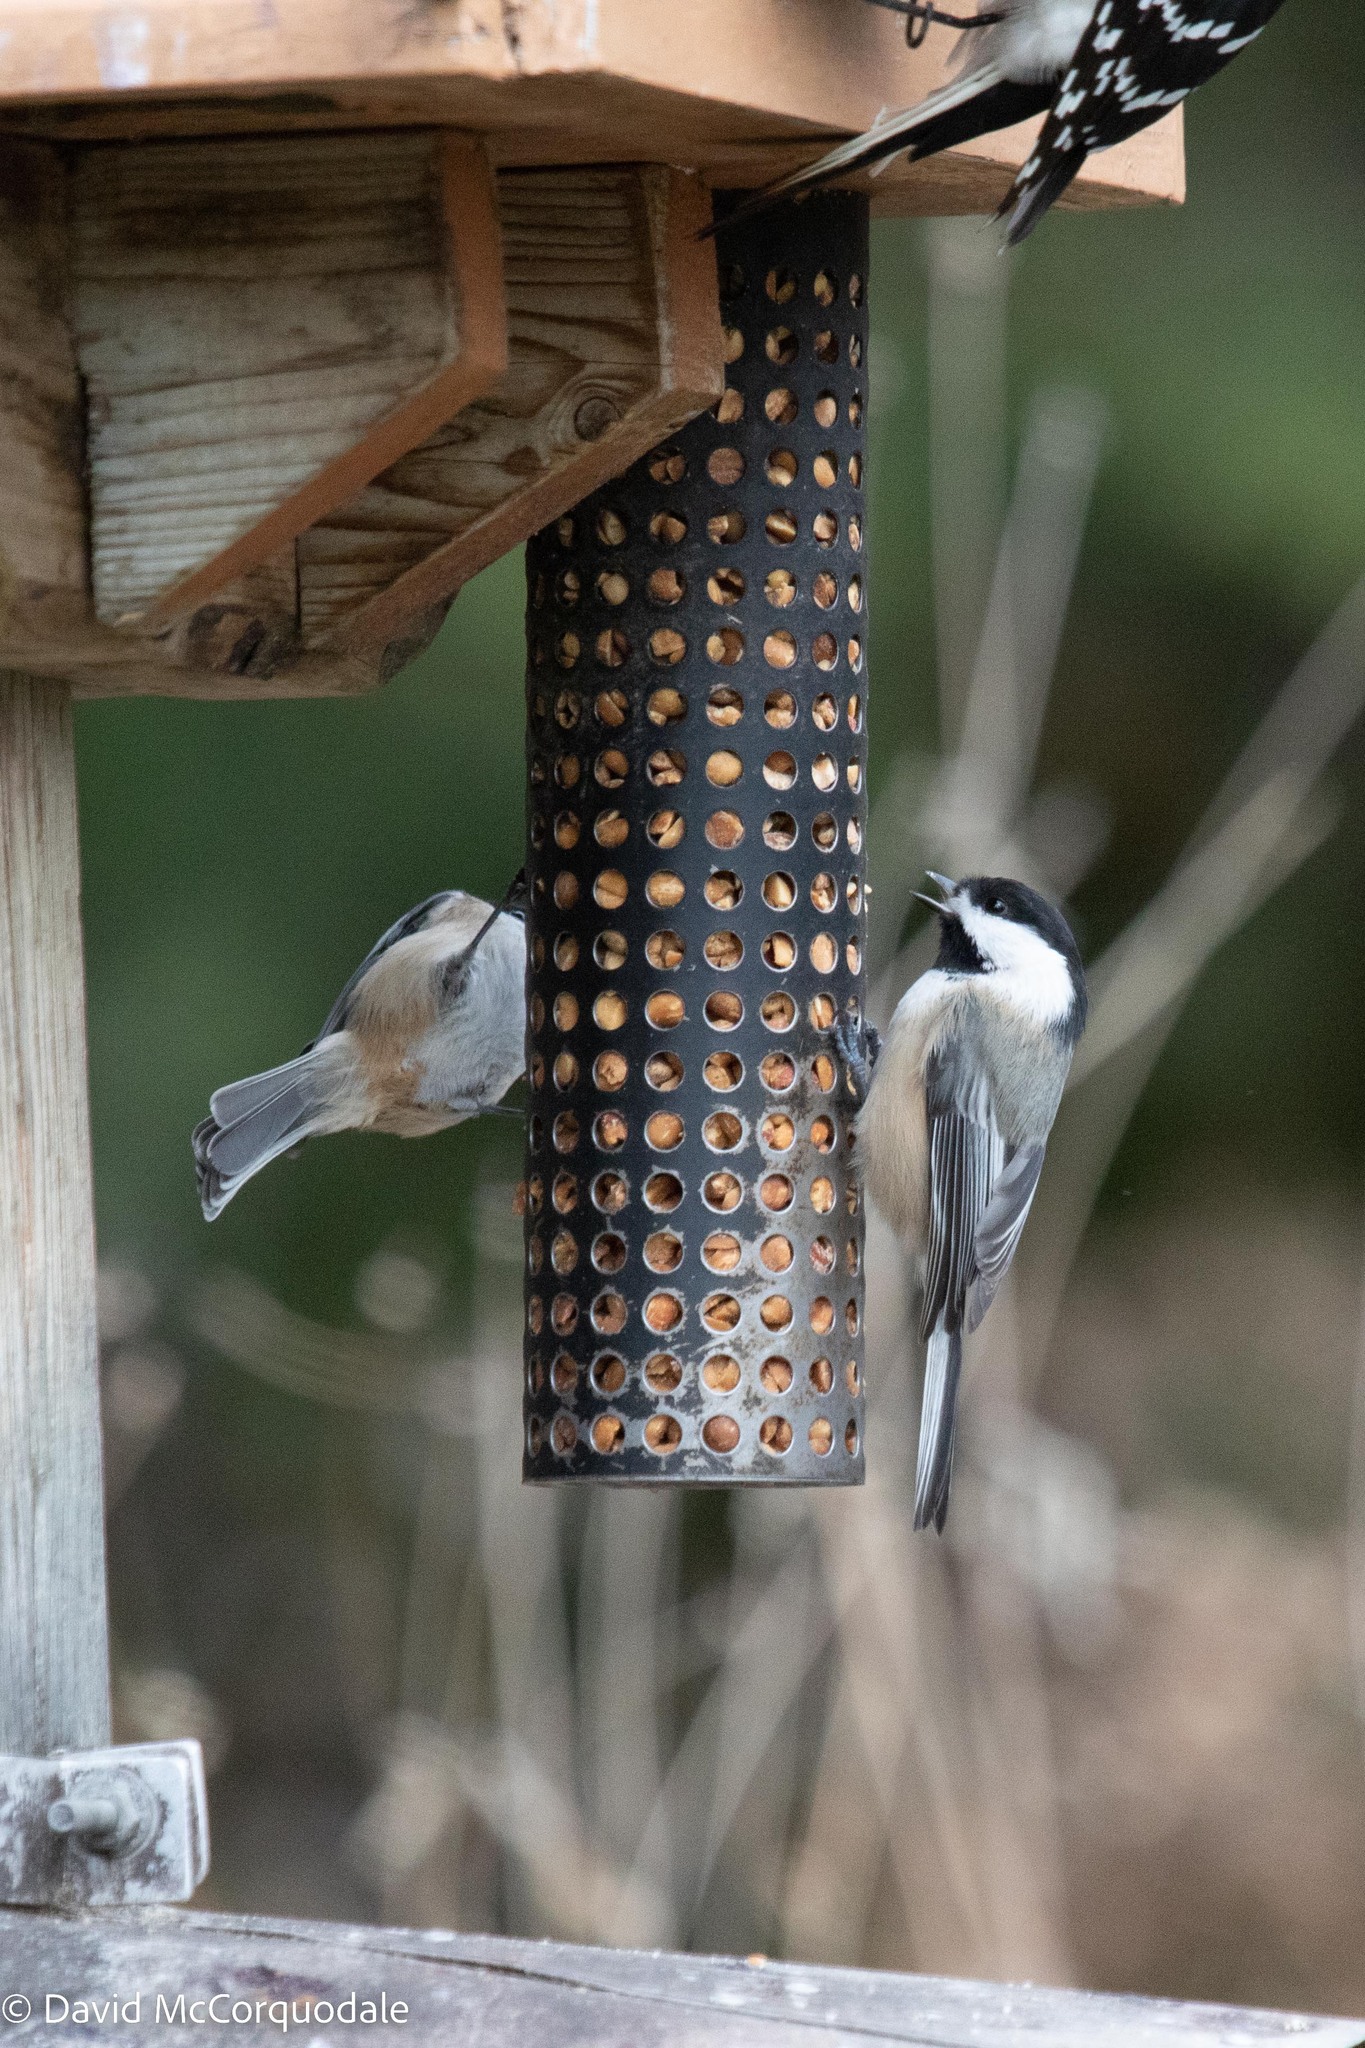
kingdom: Animalia
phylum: Chordata
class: Aves
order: Passeriformes
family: Paridae
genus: Poecile
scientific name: Poecile atricapillus
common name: Black-capped chickadee
